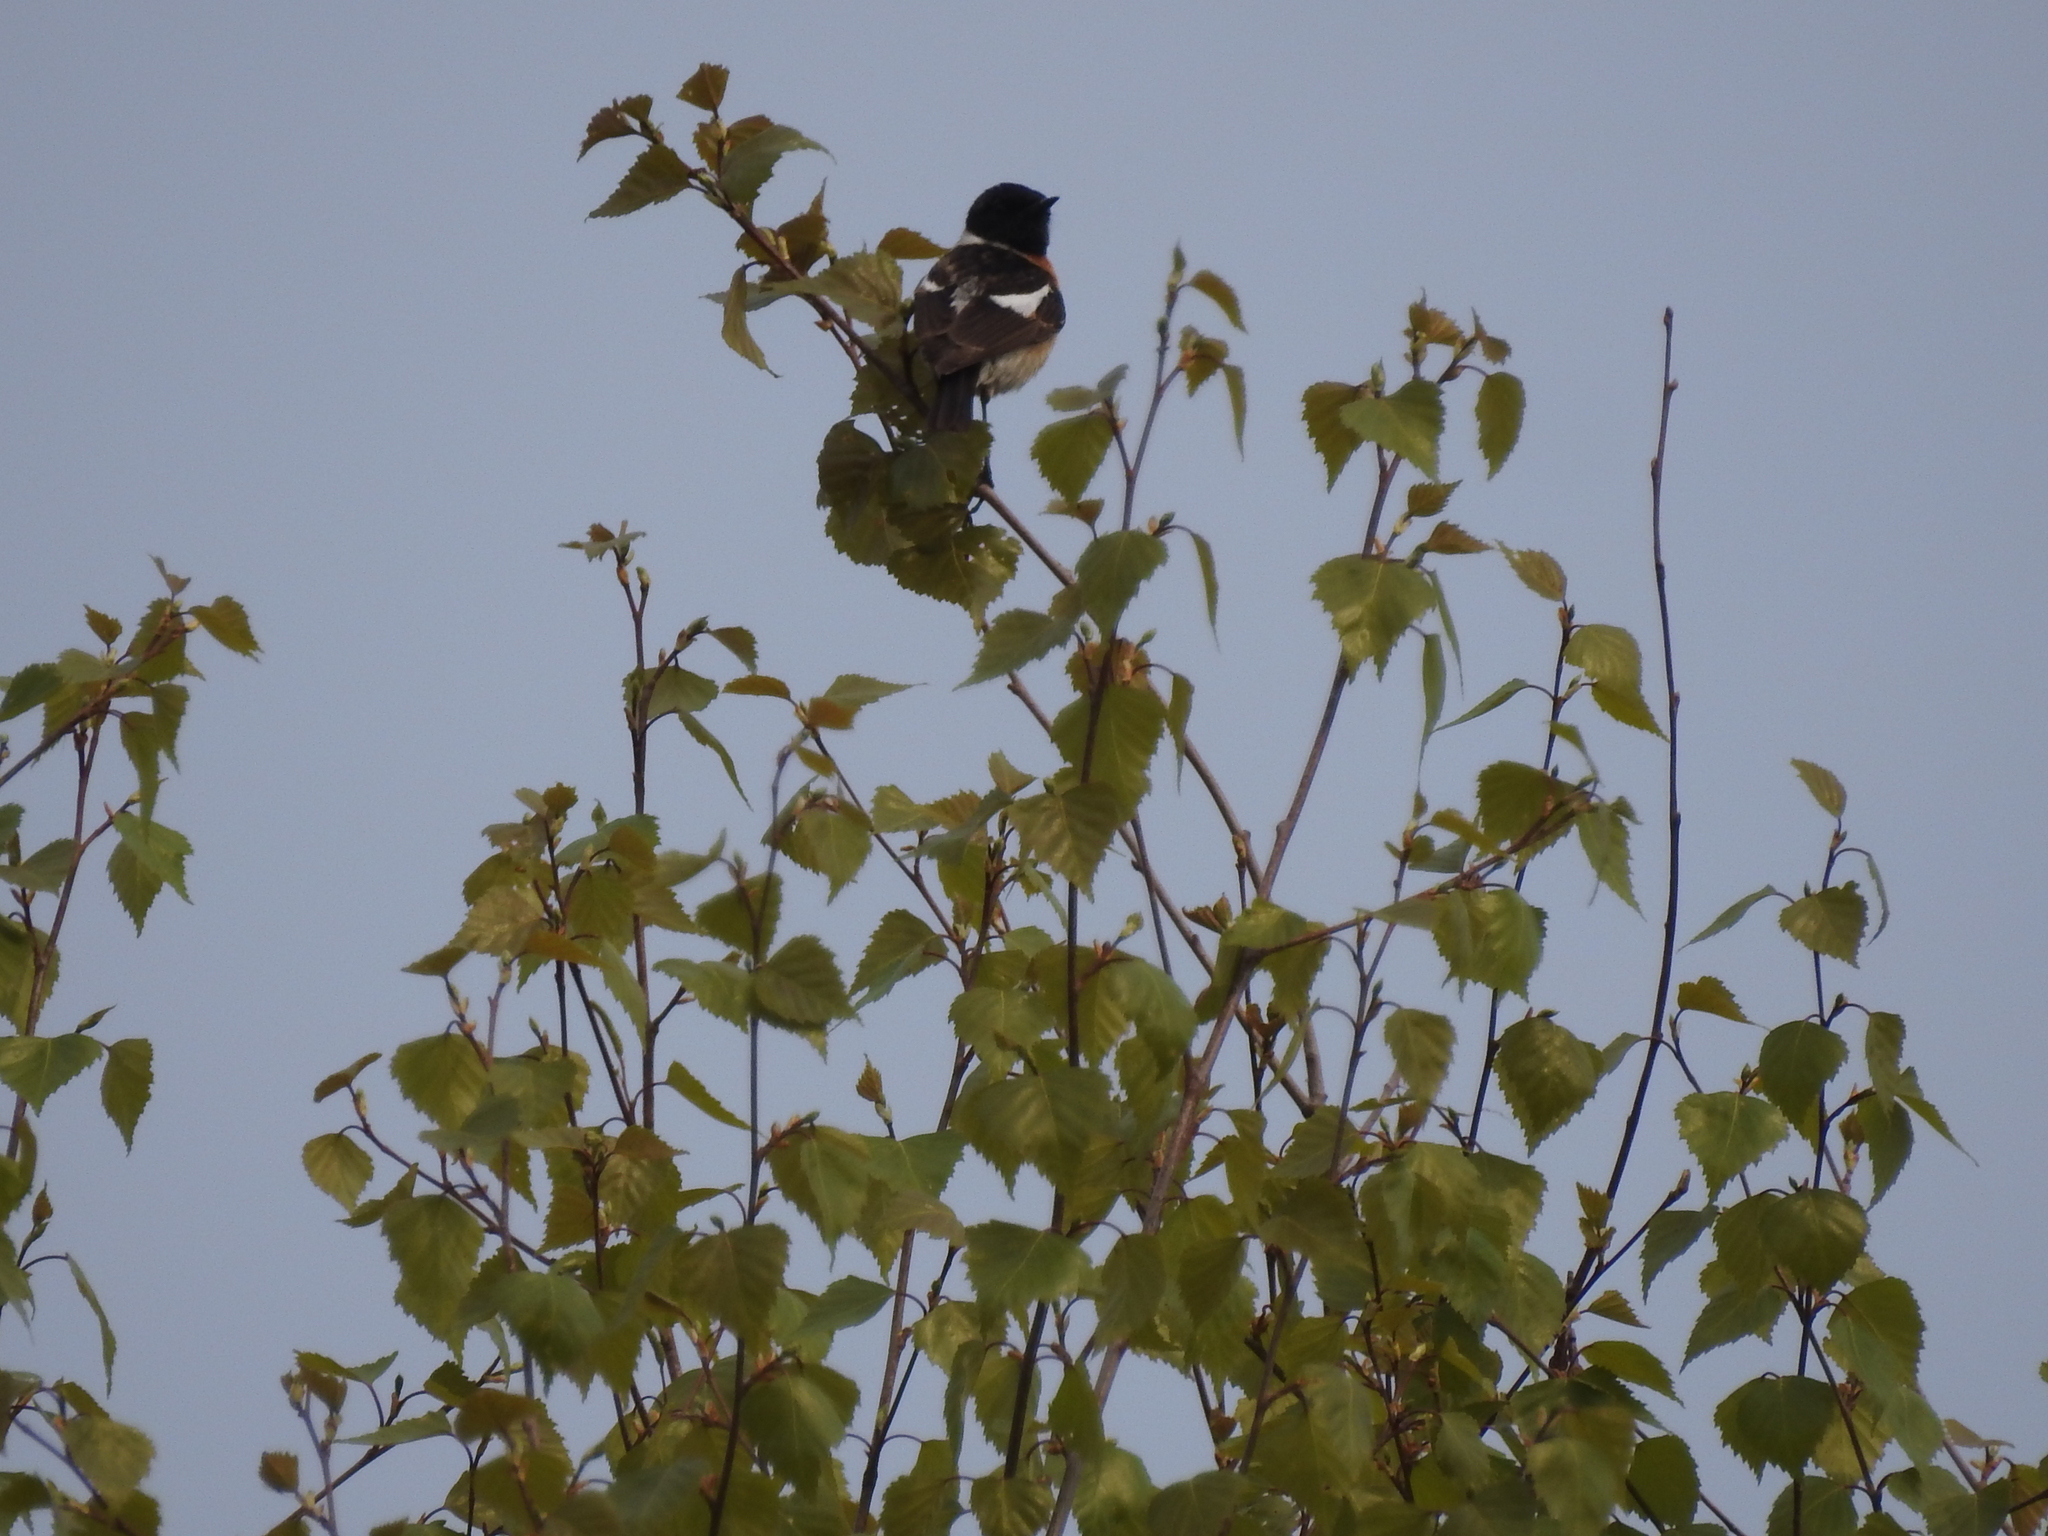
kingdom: Animalia
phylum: Chordata
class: Aves
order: Passeriformes
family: Muscicapidae
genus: Saxicola
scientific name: Saxicola maurus
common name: Siberian stonechat
